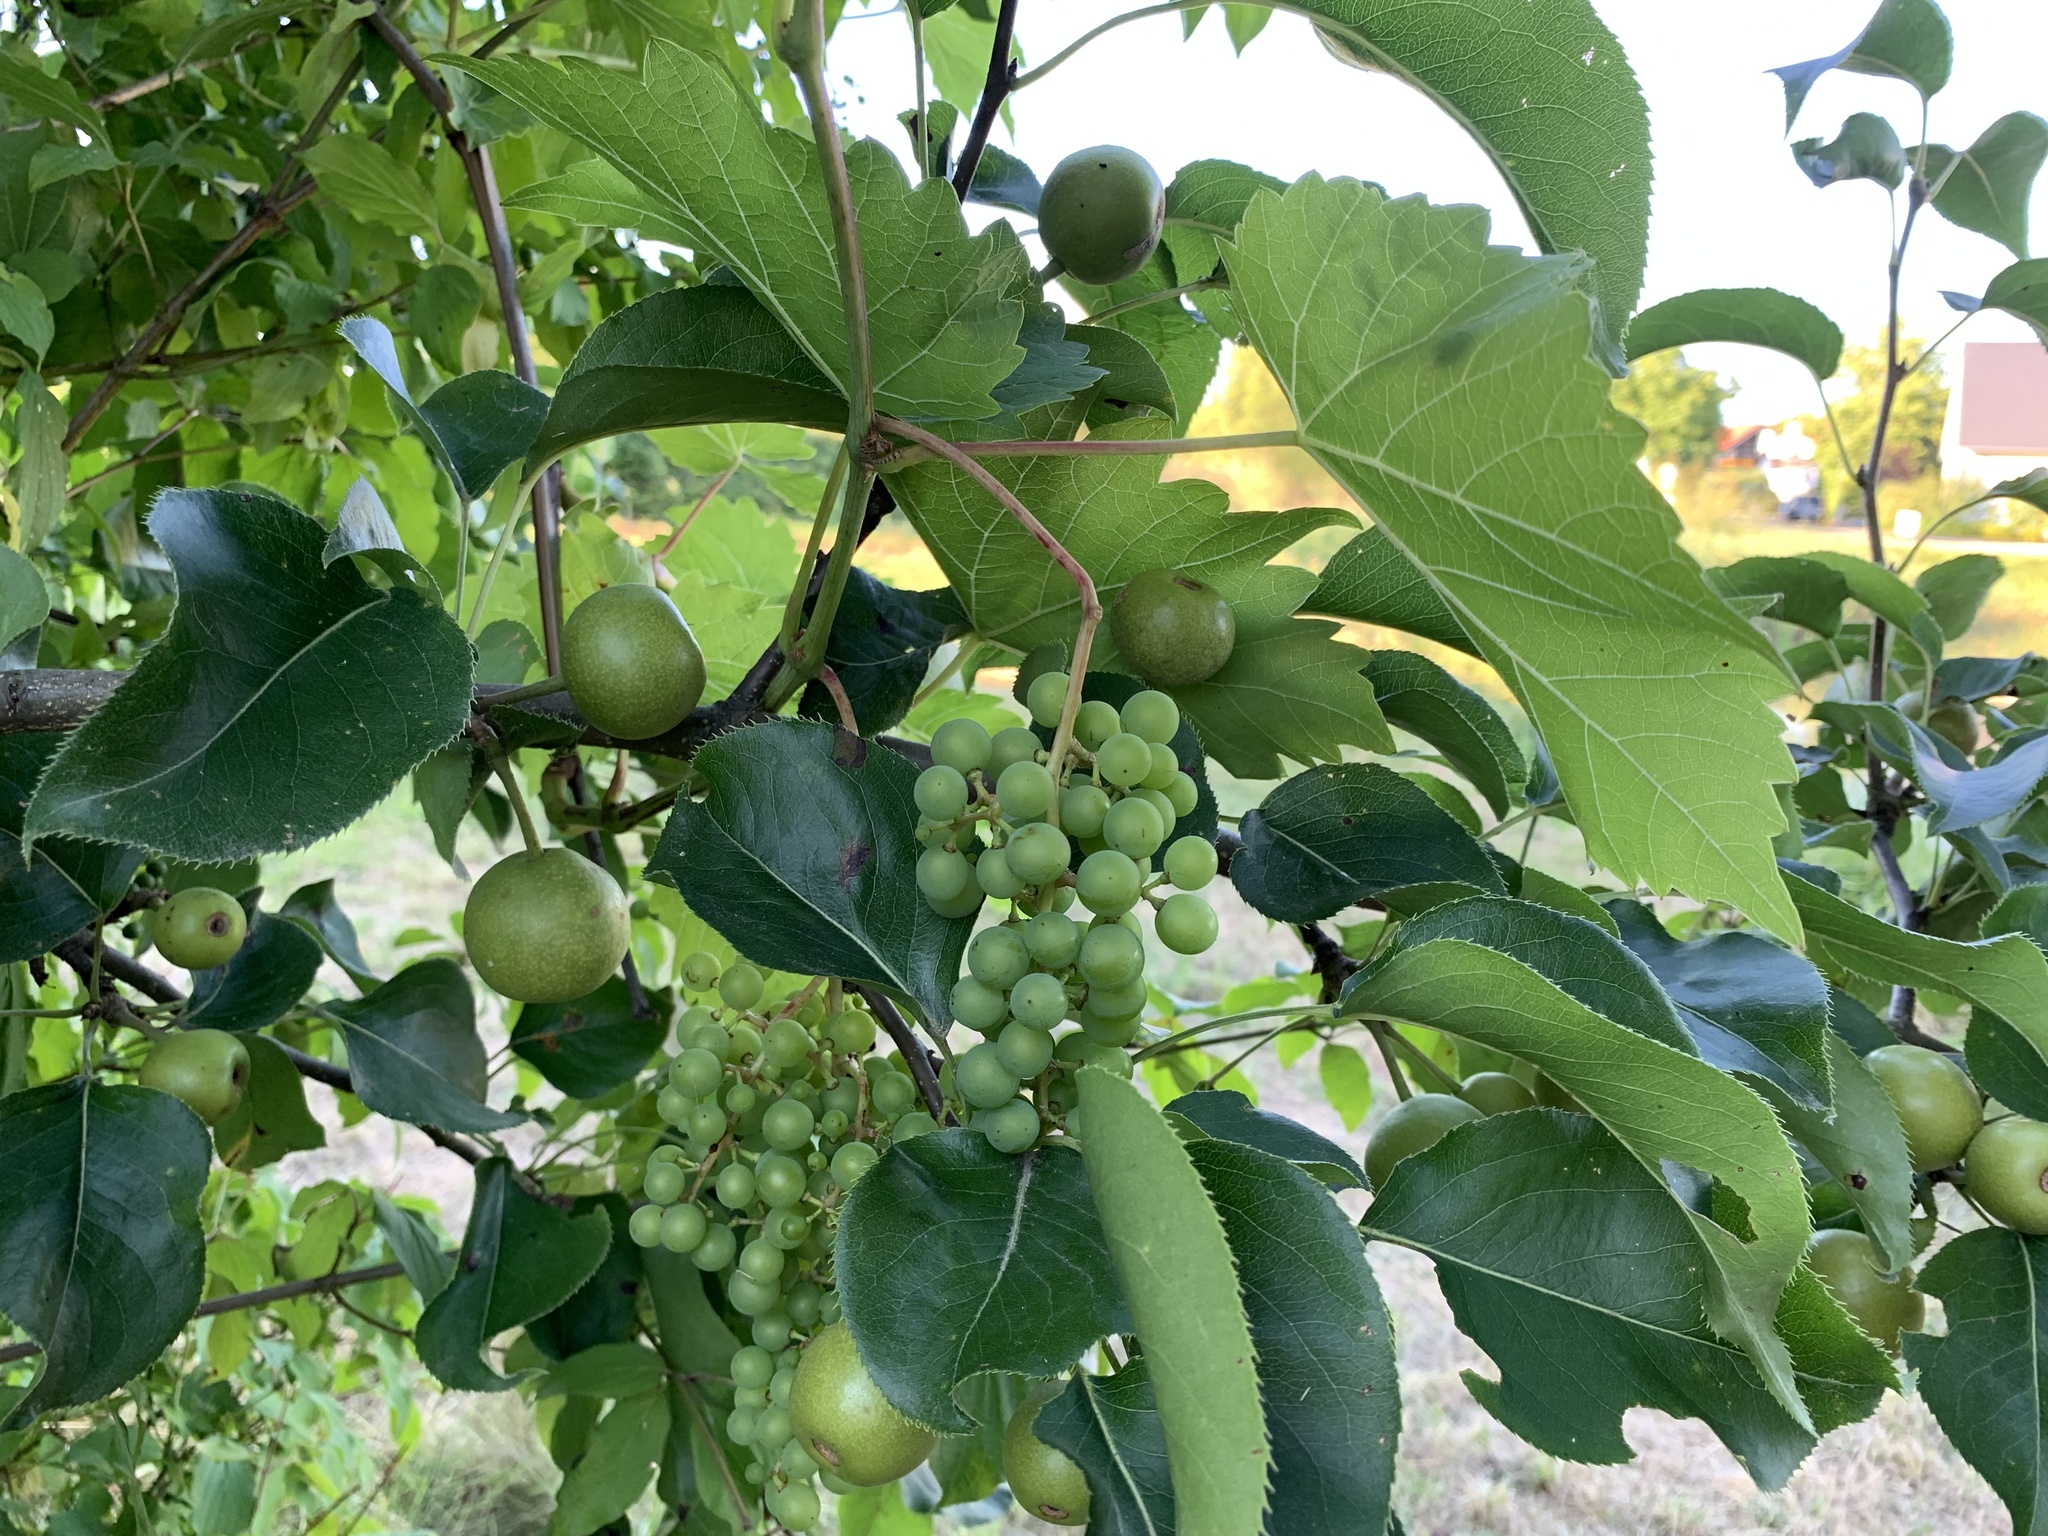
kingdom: Plantae
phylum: Tracheophyta
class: Magnoliopsida
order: Vitales
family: Vitaceae
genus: Vitis
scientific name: Vitis vinifera
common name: Grape-vine
